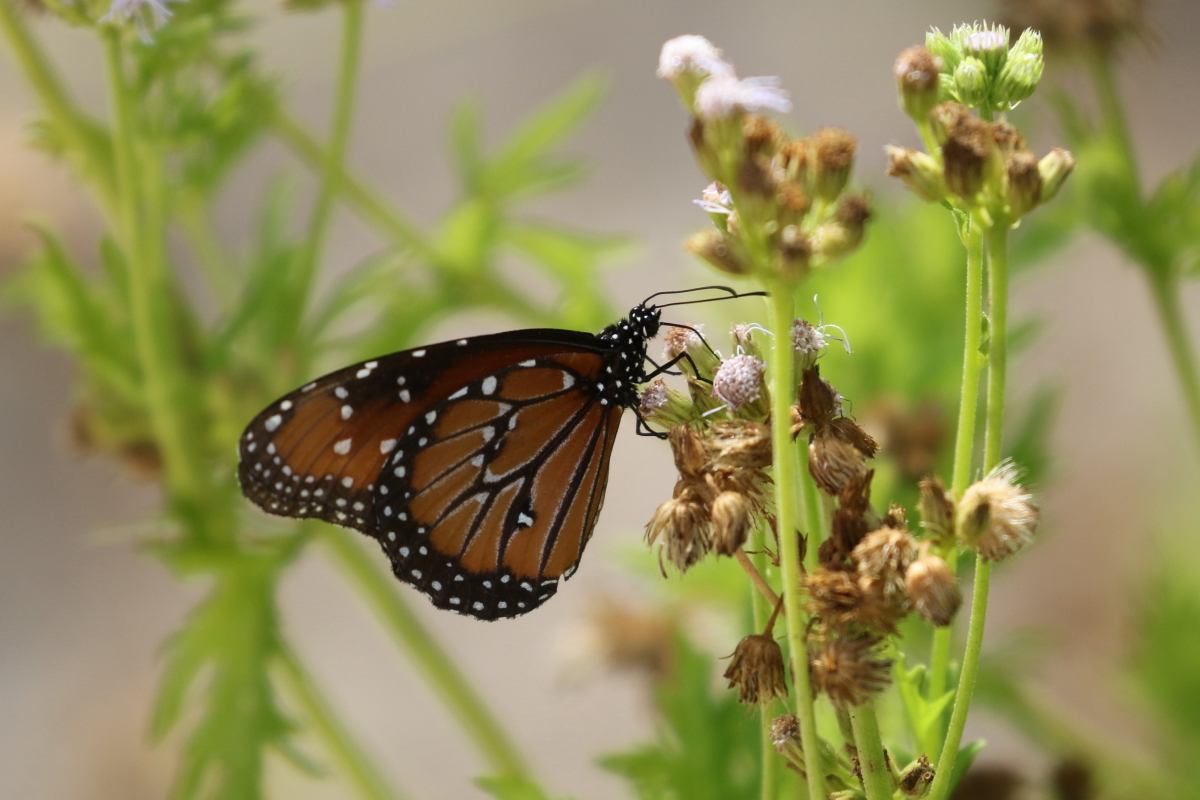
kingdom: Animalia
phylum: Arthropoda
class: Insecta
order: Lepidoptera
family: Nymphalidae
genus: Danaus
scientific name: Danaus gilippus
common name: Queen
